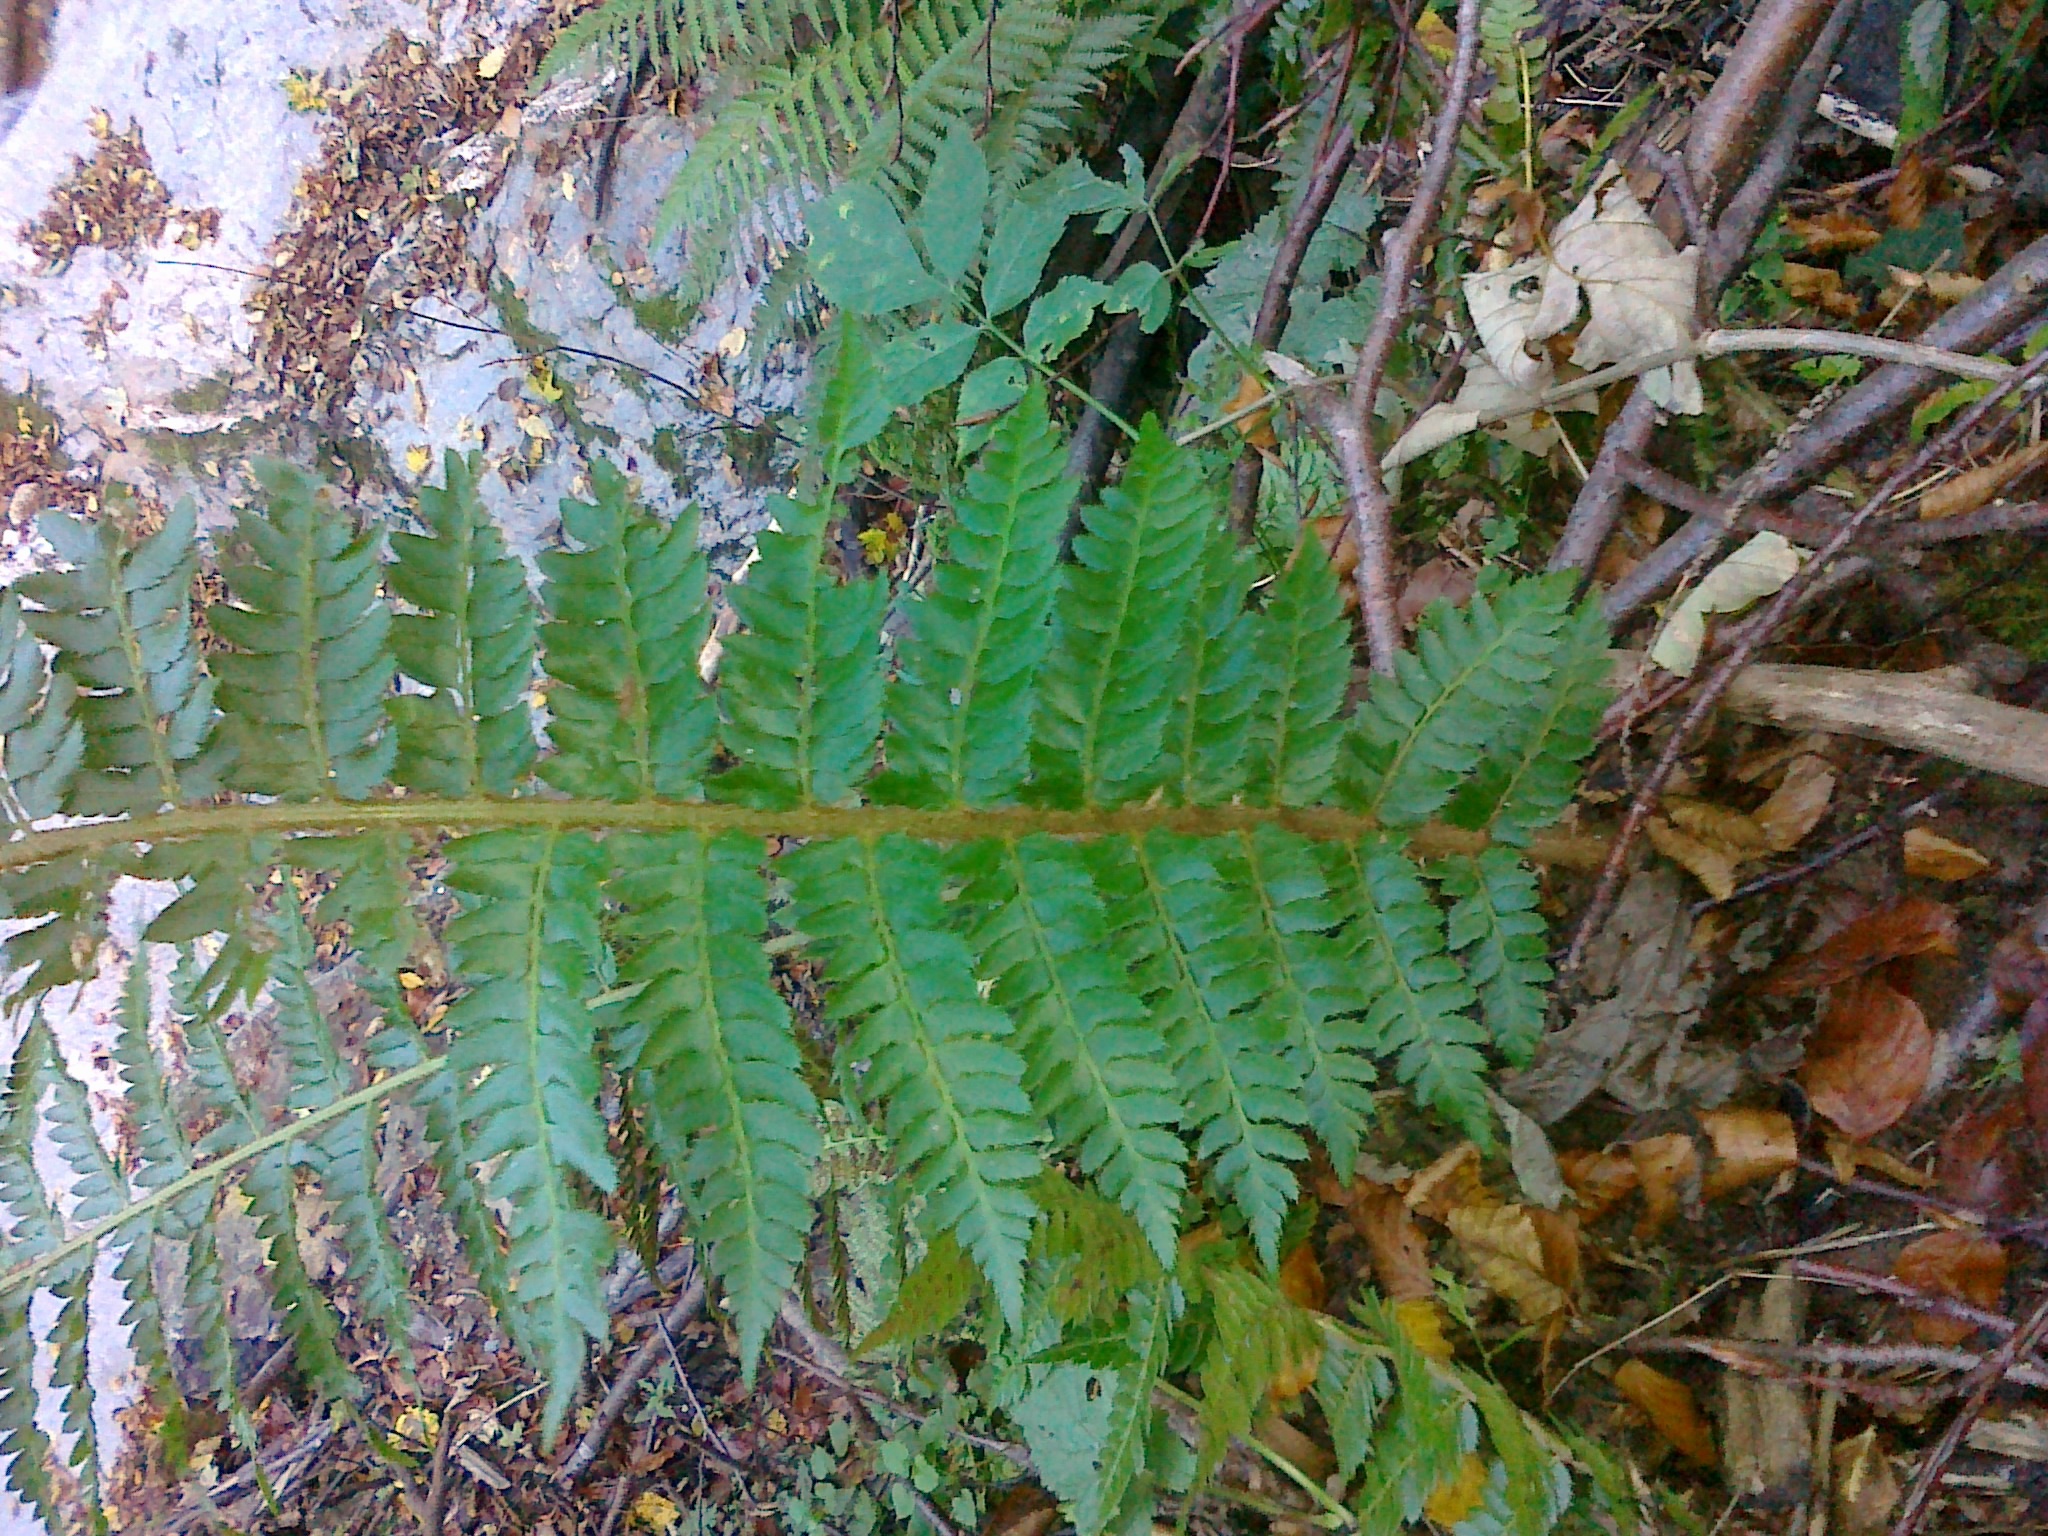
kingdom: Plantae
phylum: Tracheophyta
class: Polypodiopsida
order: Polypodiales
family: Dryopteridaceae
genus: Polystichum
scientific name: Polystichum luerssenii
